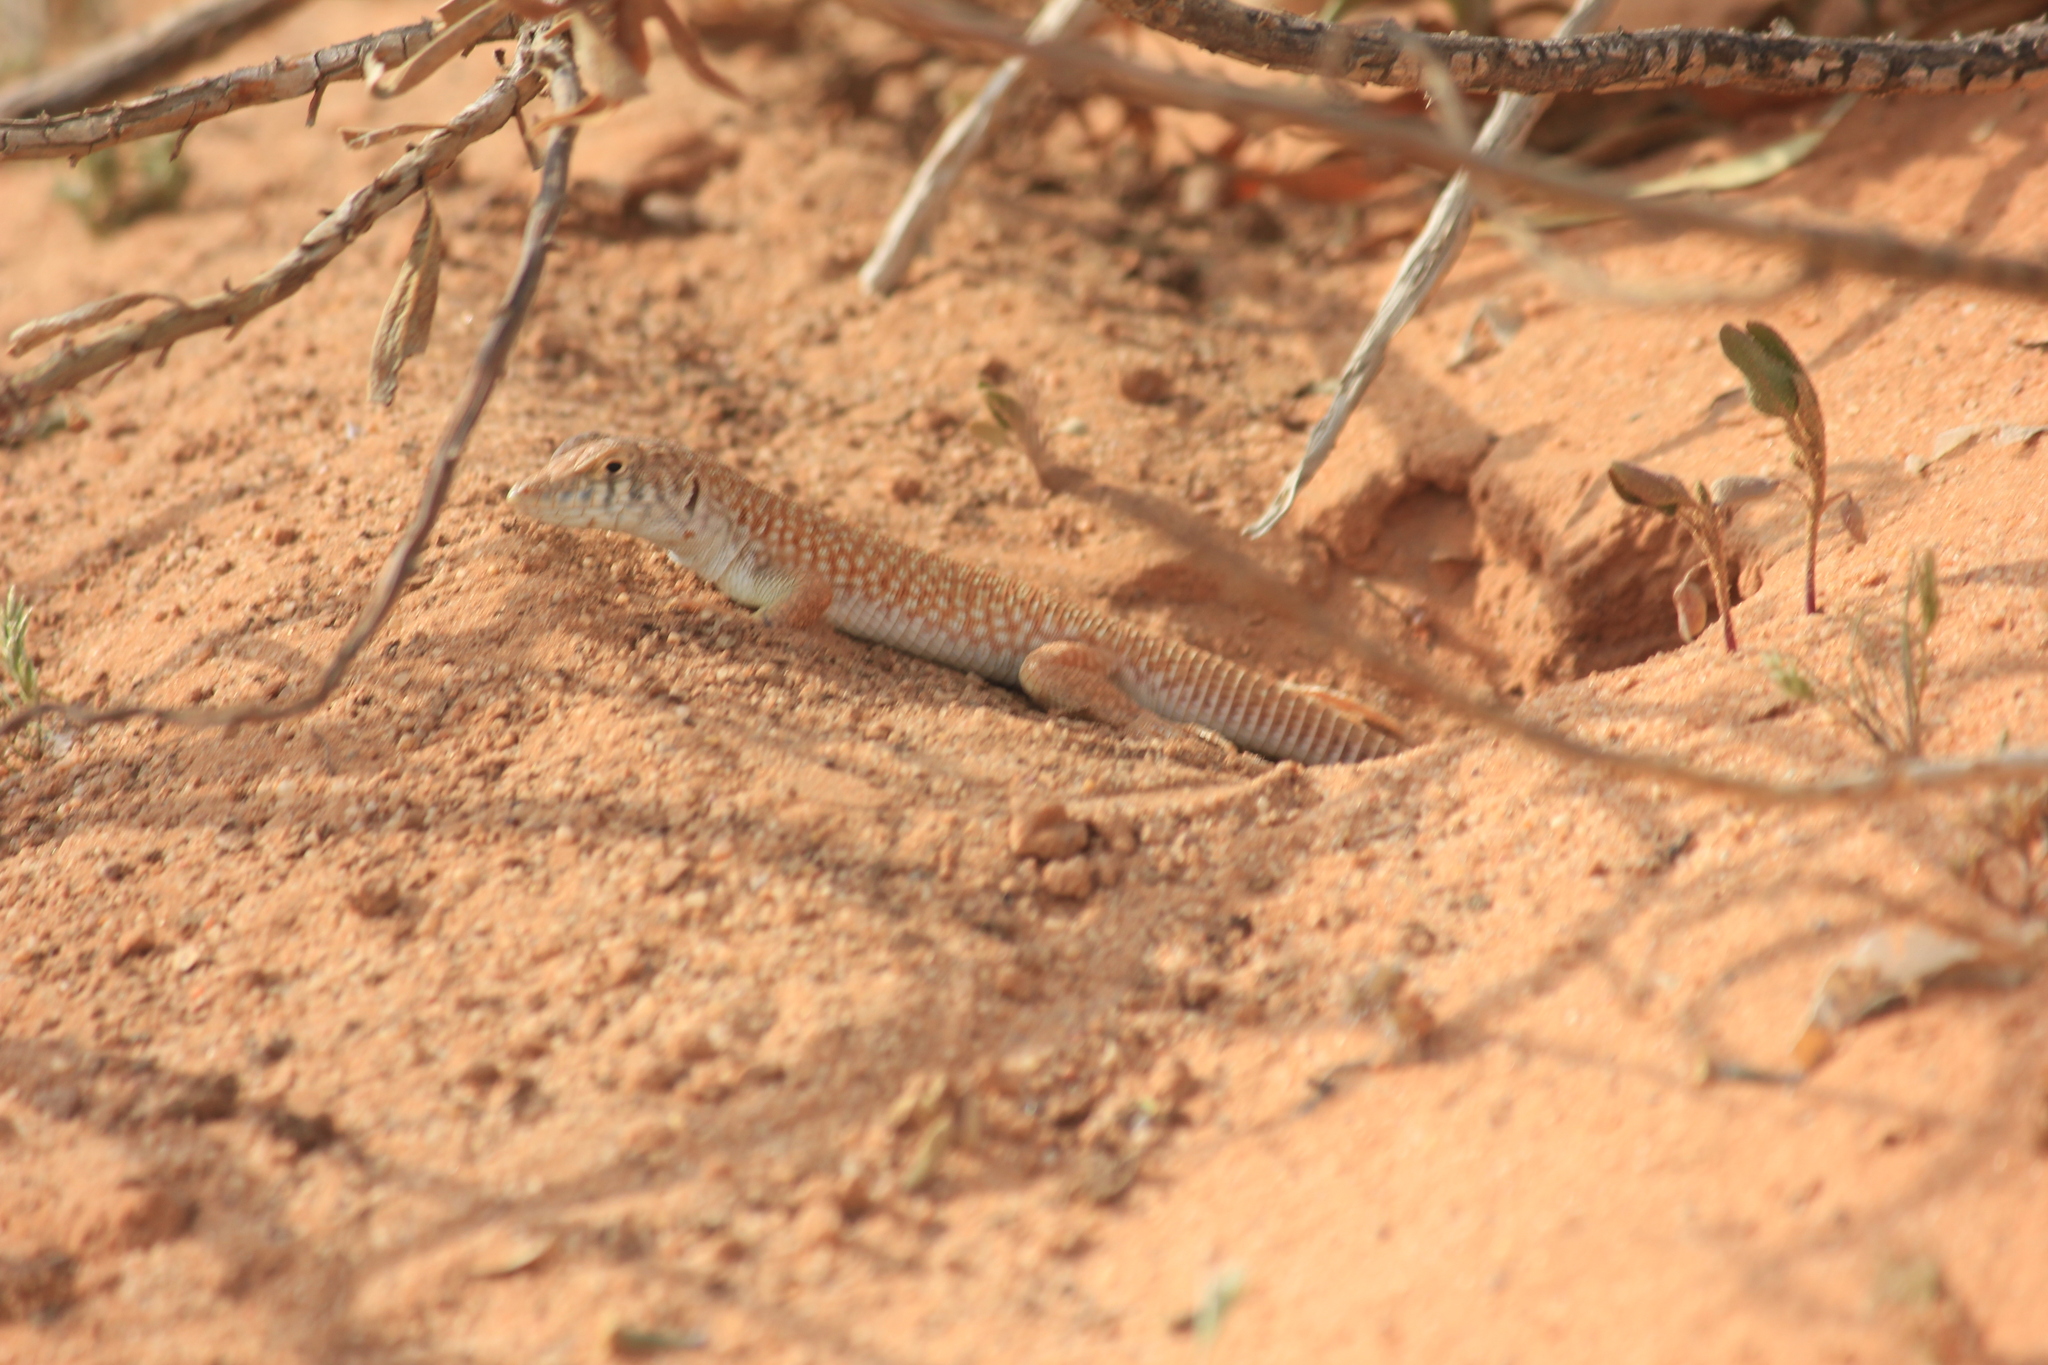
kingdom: Animalia
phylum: Chordata
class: Squamata
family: Lacertidae
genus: Acanthodactylus
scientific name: Acanthodactylus schmidti
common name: Schmidt's fringe-toed lizard
